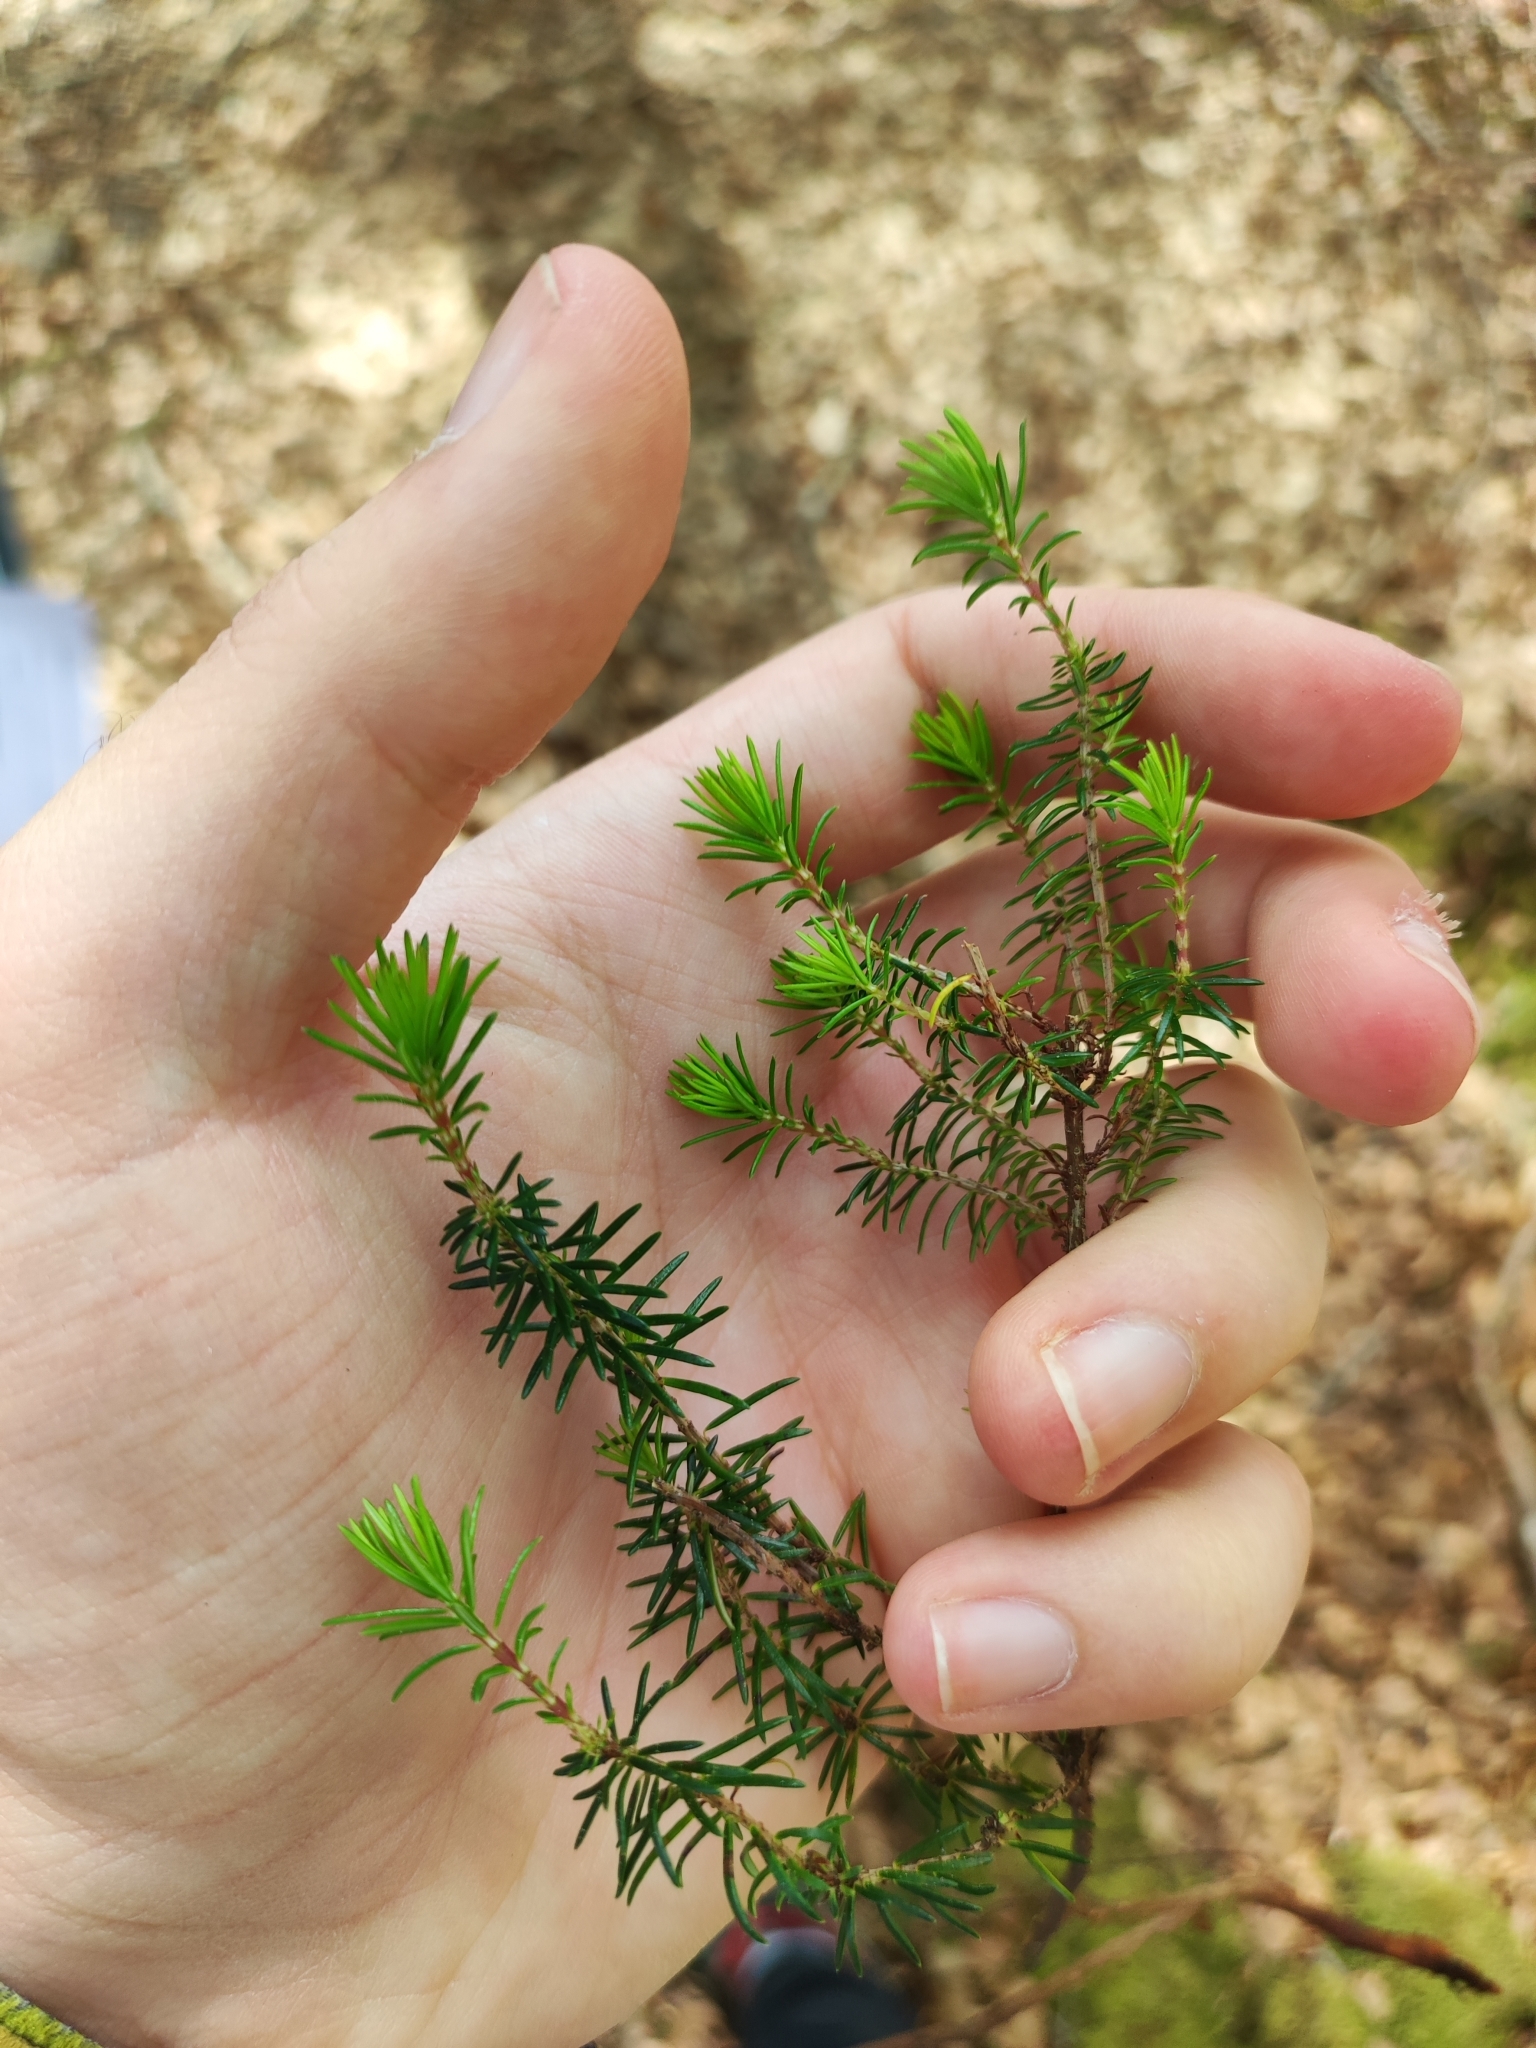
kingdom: Plantae
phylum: Tracheophyta
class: Magnoliopsida
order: Ericales
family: Ericaceae
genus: Erica
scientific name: Erica vagans
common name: Cornish heath
